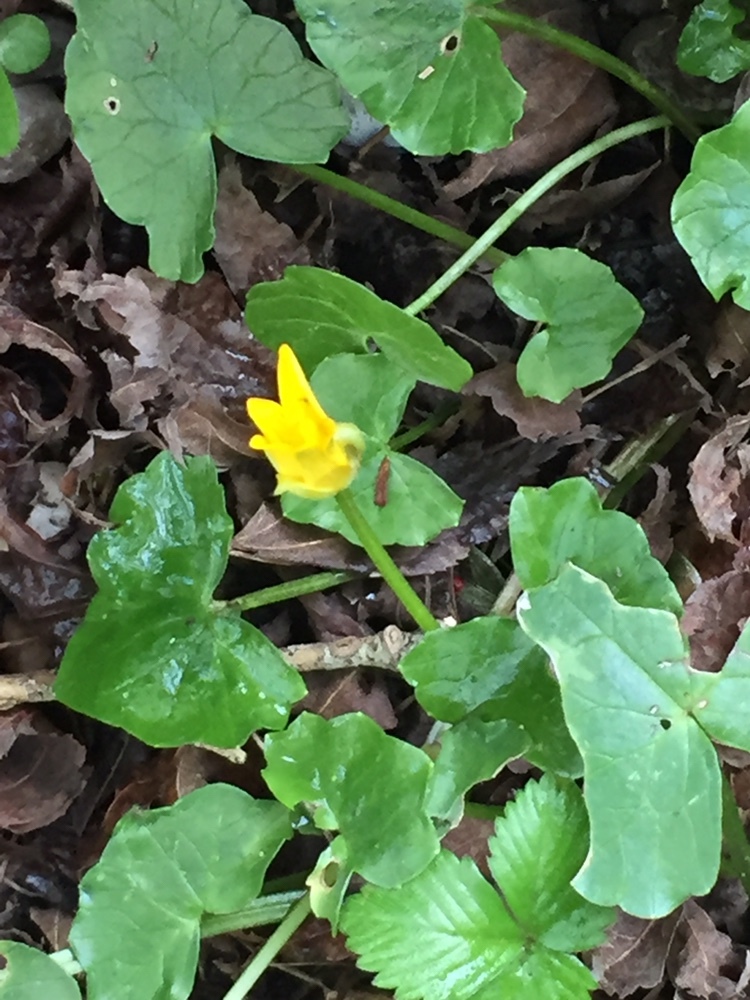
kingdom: Plantae
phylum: Tracheophyta
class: Magnoliopsida
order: Ranunculales
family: Ranunculaceae
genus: Ficaria
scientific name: Ficaria verna
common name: Lesser celandine
